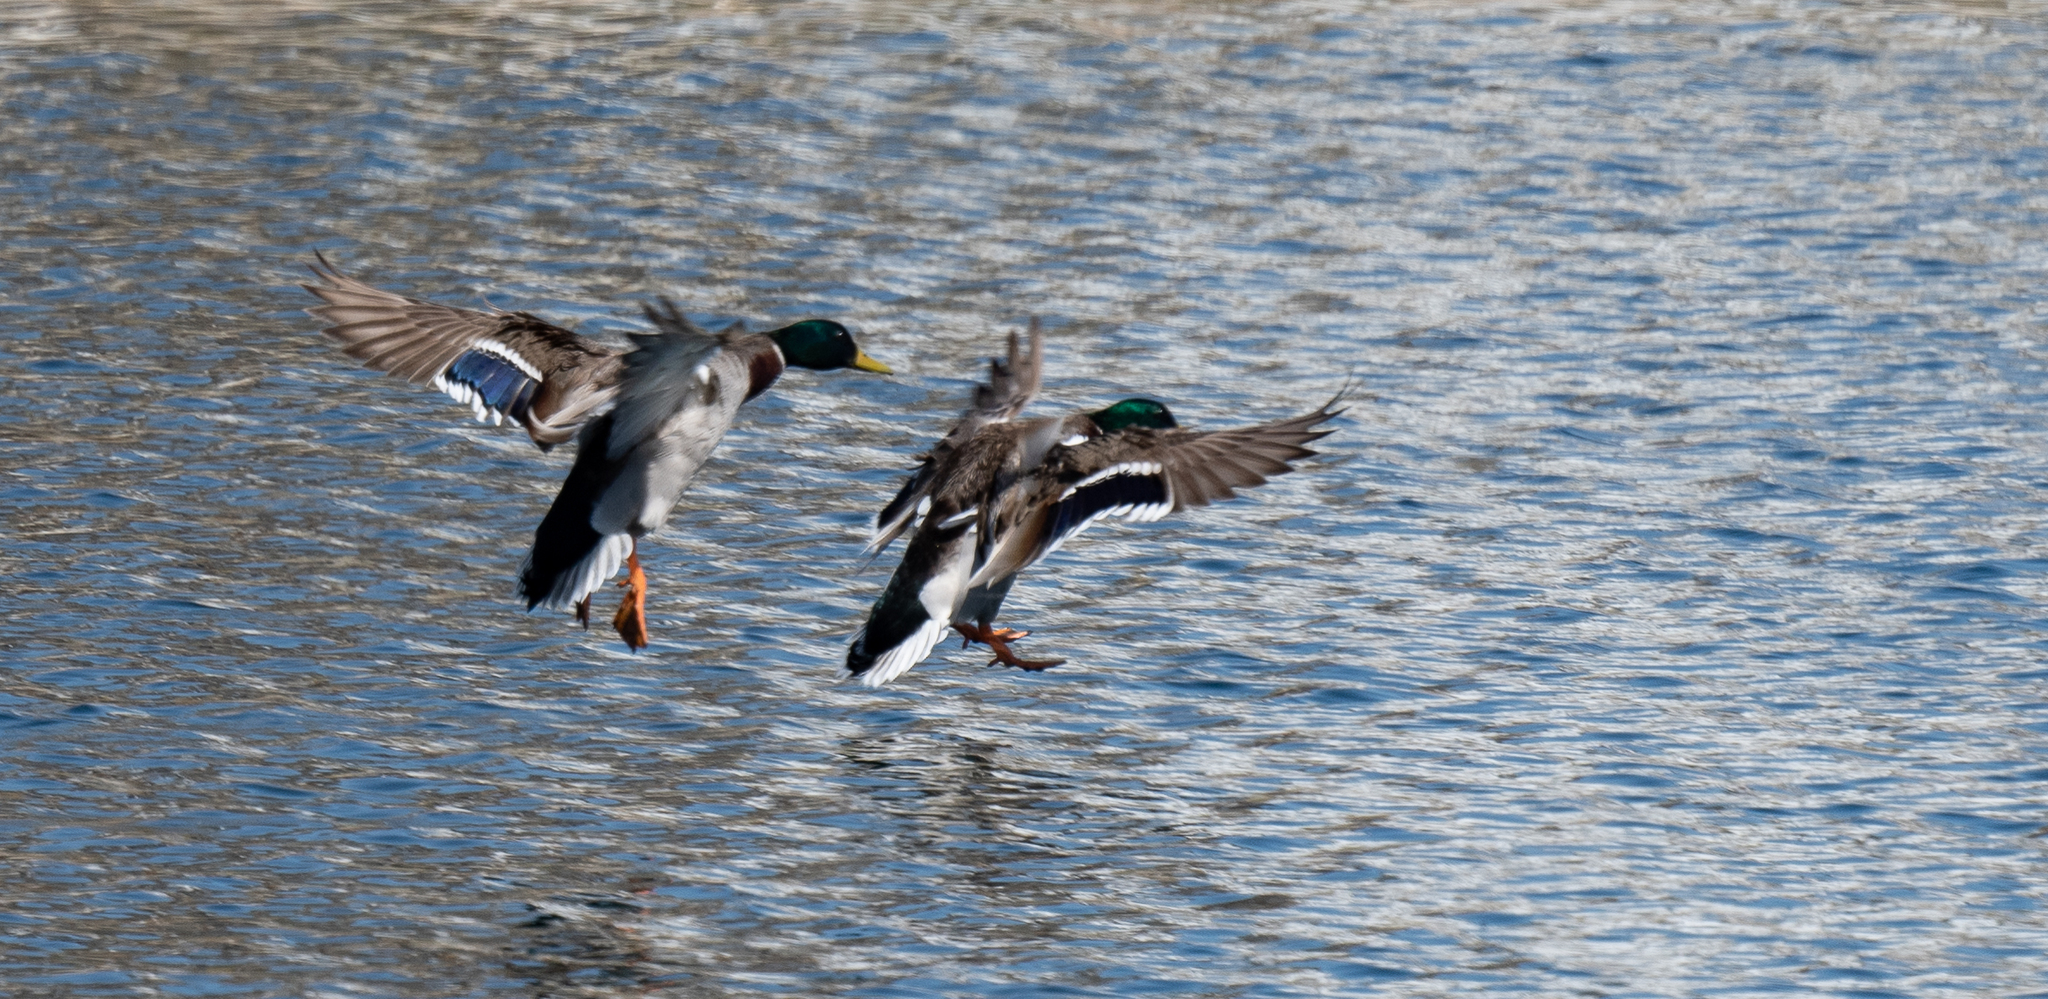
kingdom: Animalia
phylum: Chordata
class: Aves
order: Anseriformes
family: Anatidae
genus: Anas
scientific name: Anas platyrhynchos
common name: Mallard
